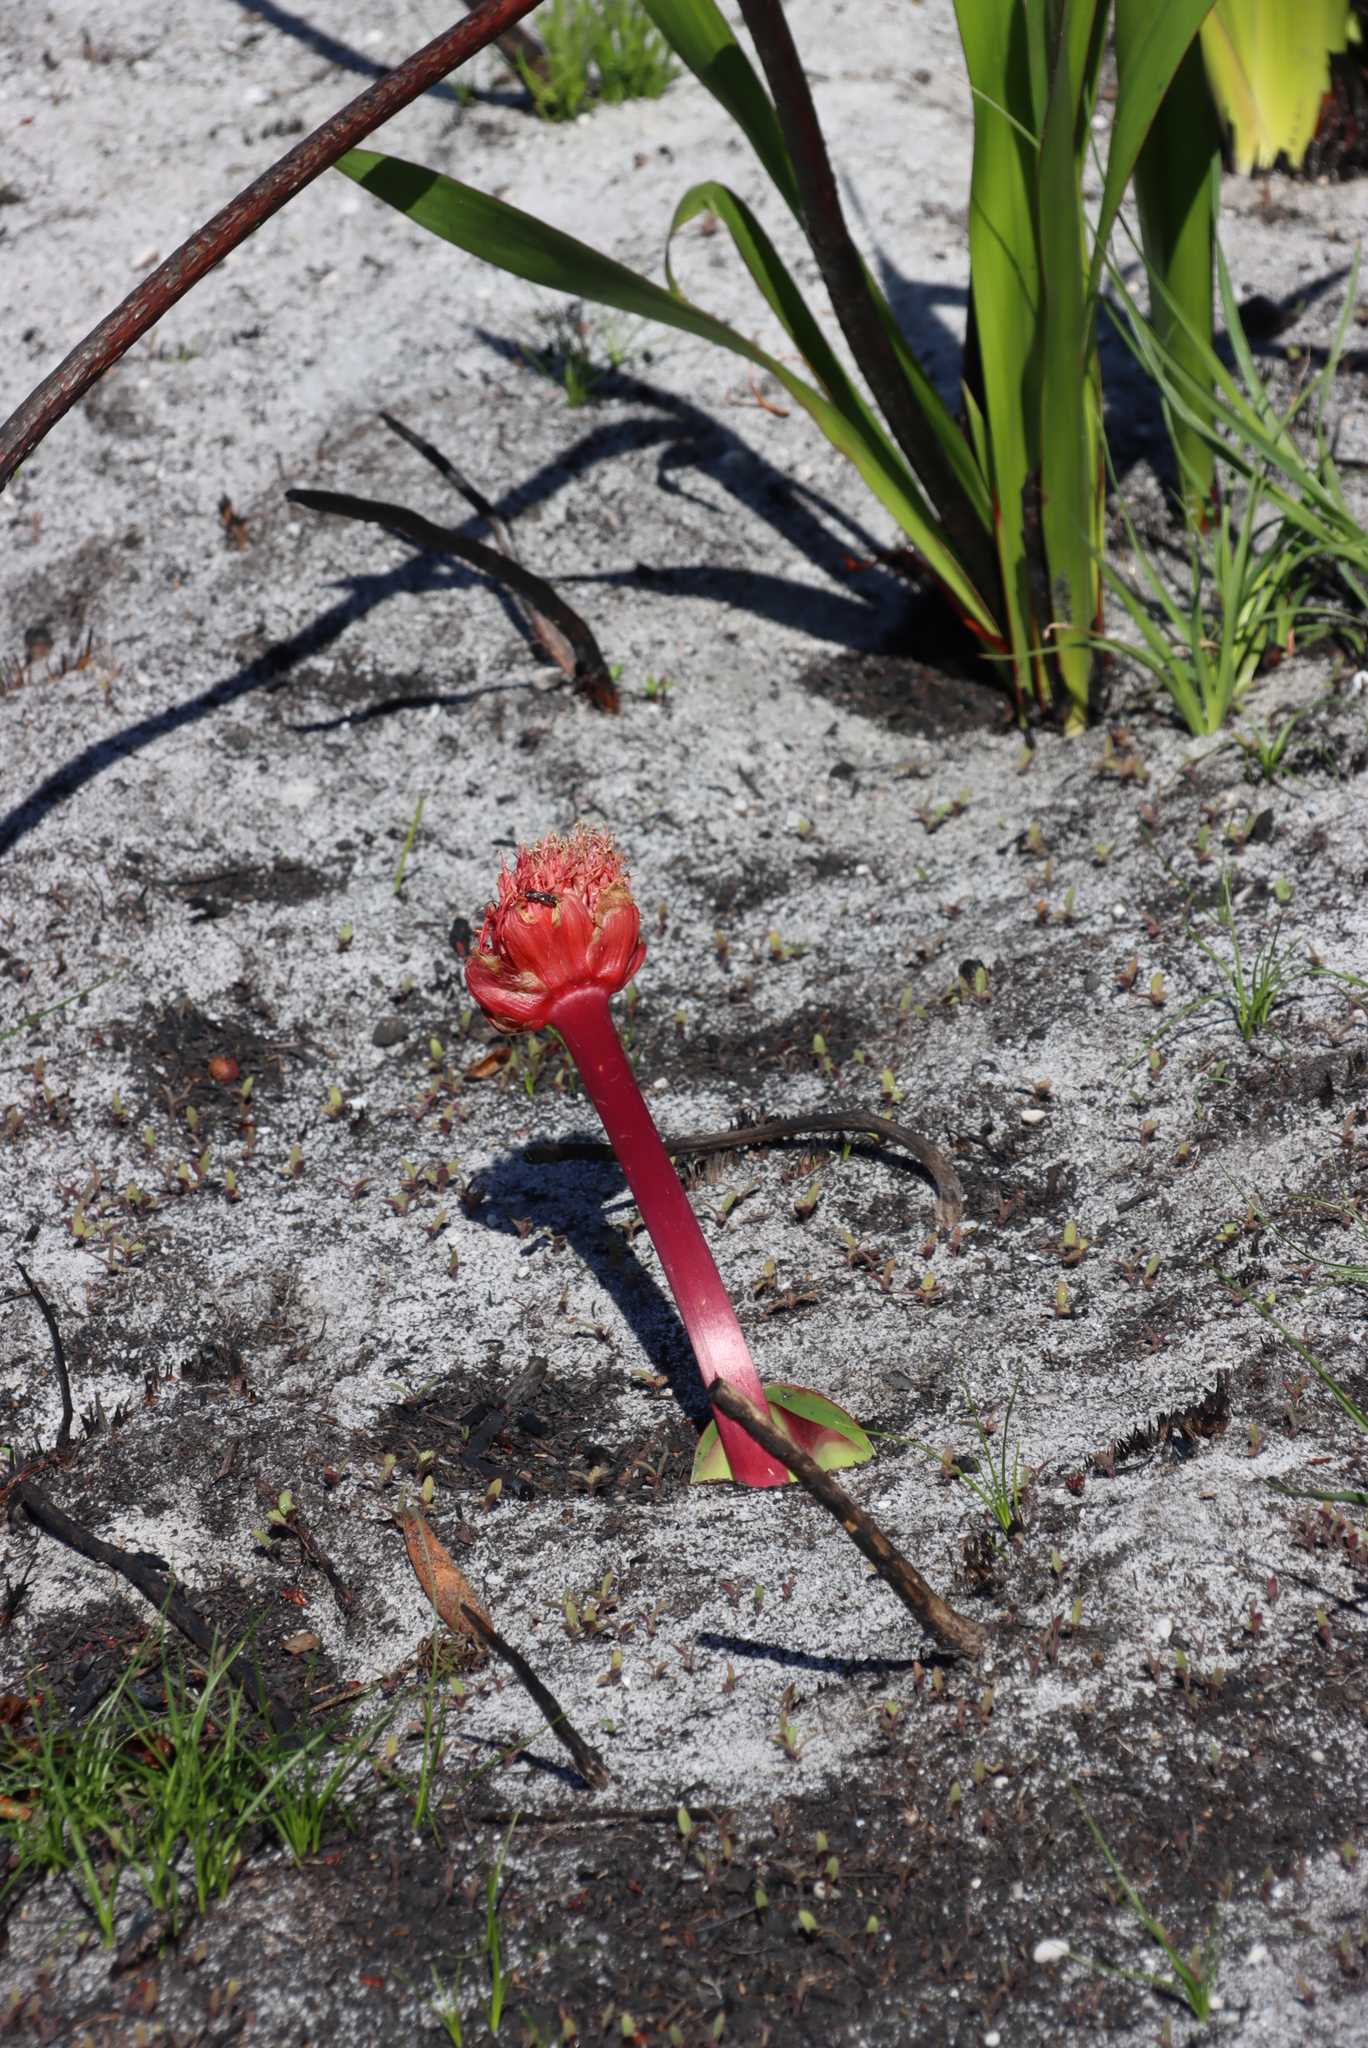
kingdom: Plantae
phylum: Tracheophyta
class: Liliopsida
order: Asparagales
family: Amaryllidaceae
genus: Haemanthus
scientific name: Haemanthus sanguineus
